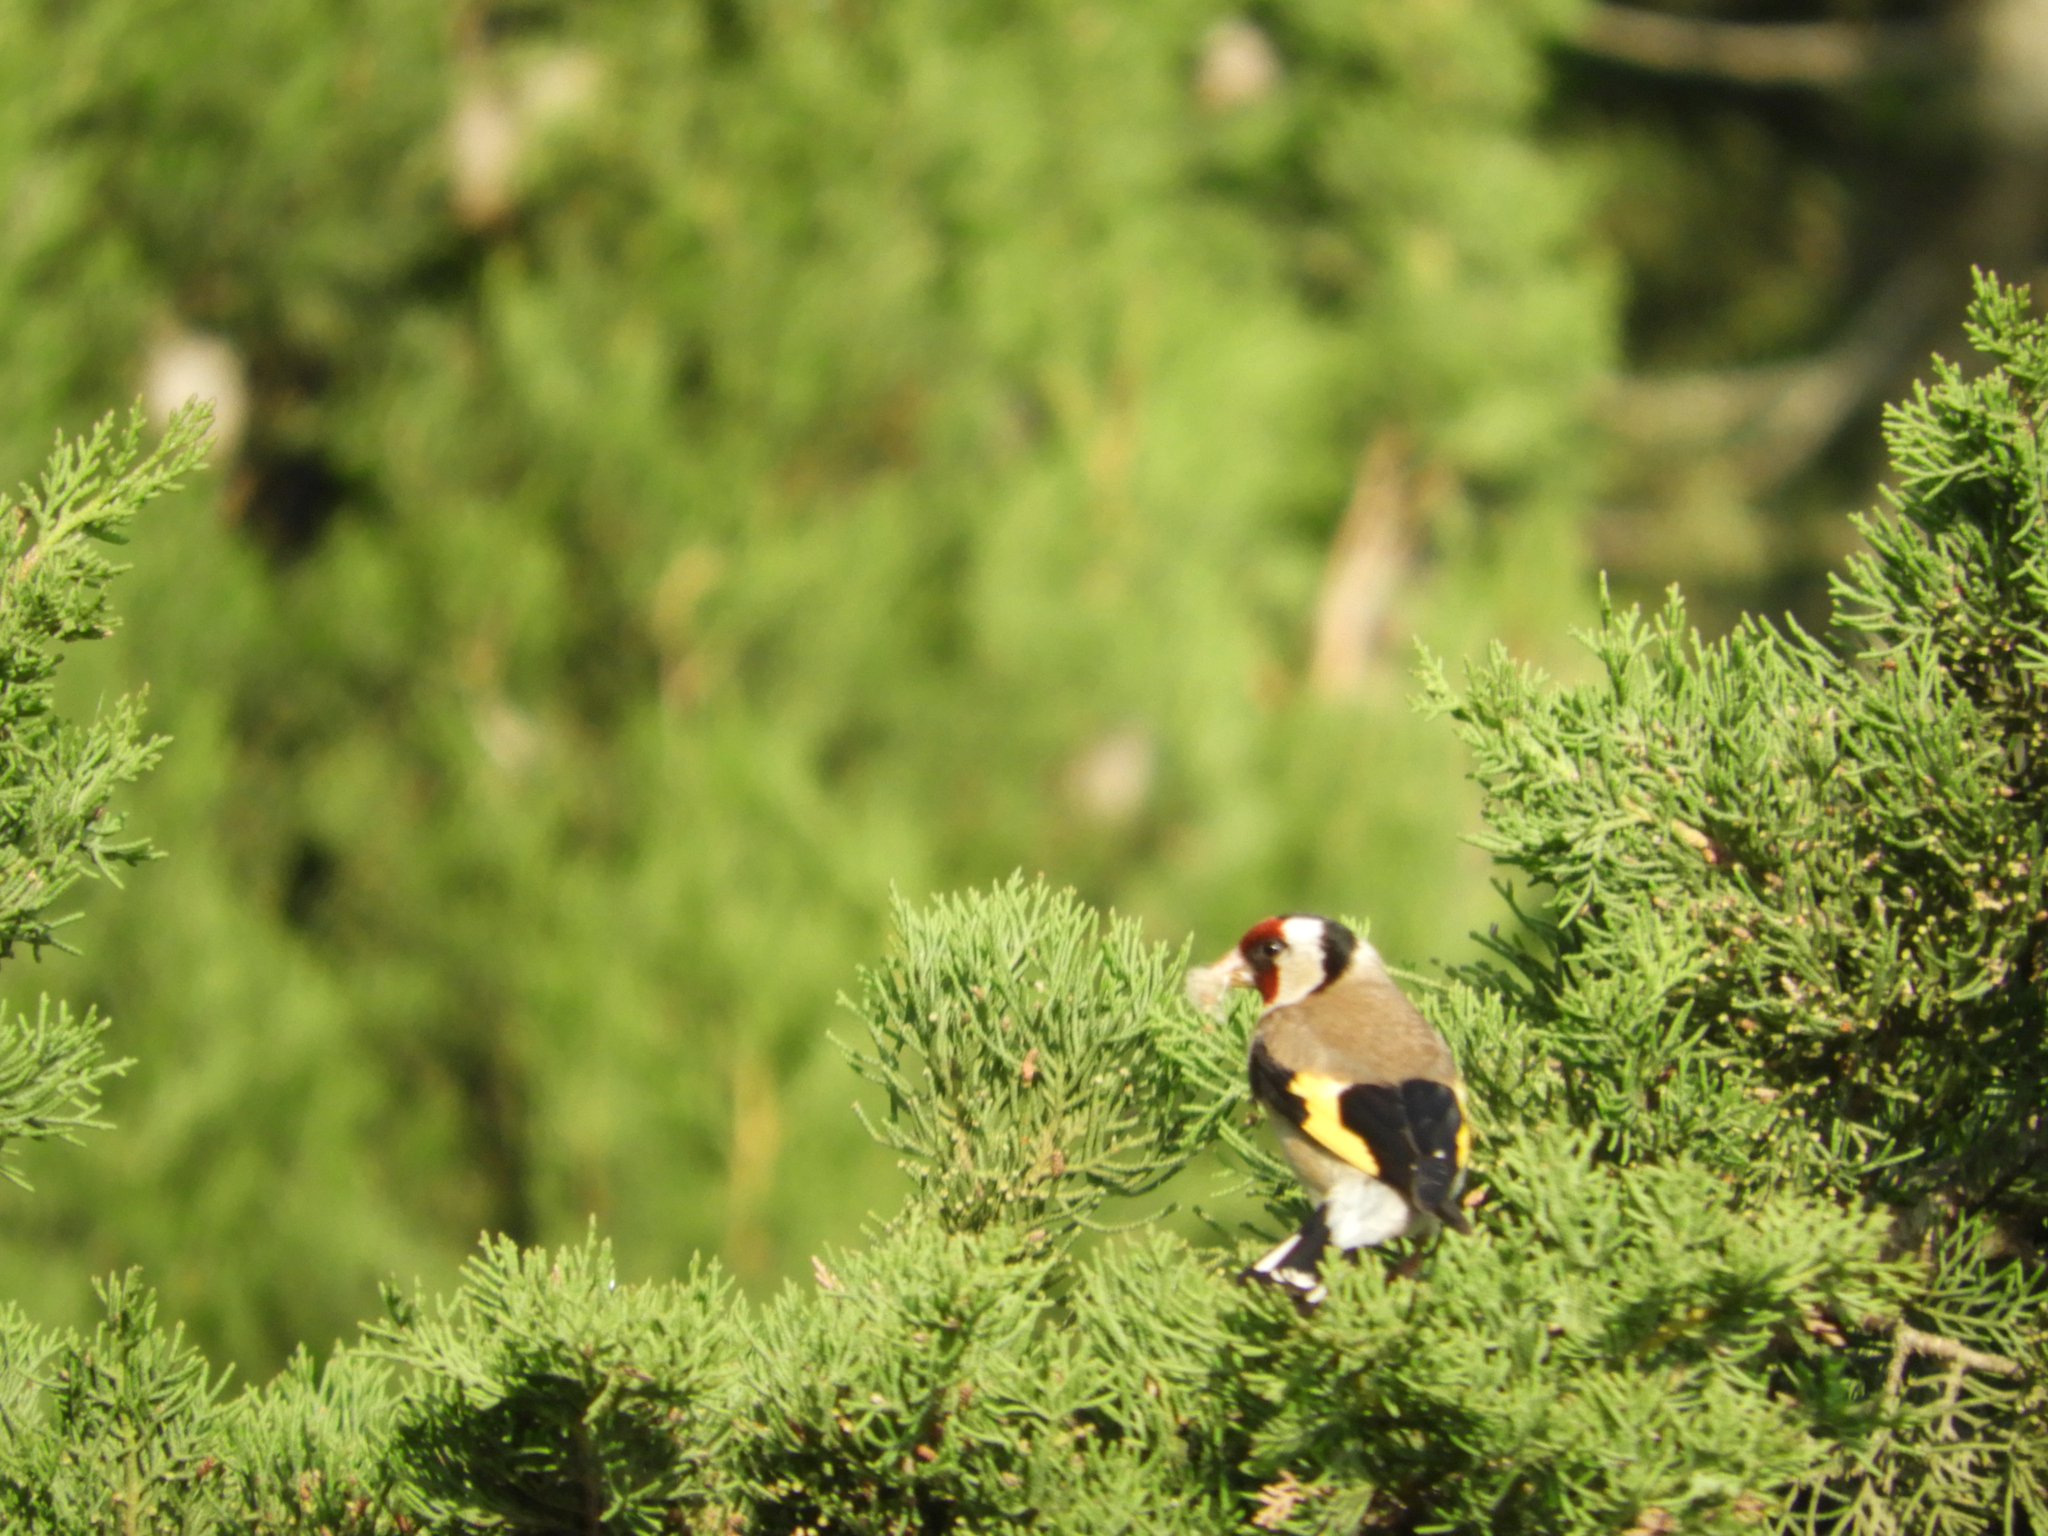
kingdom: Animalia
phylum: Chordata
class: Aves
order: Passeriformes
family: Fringillidae
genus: Carduelis
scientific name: Carduelis carduelis
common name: European goldfinch
